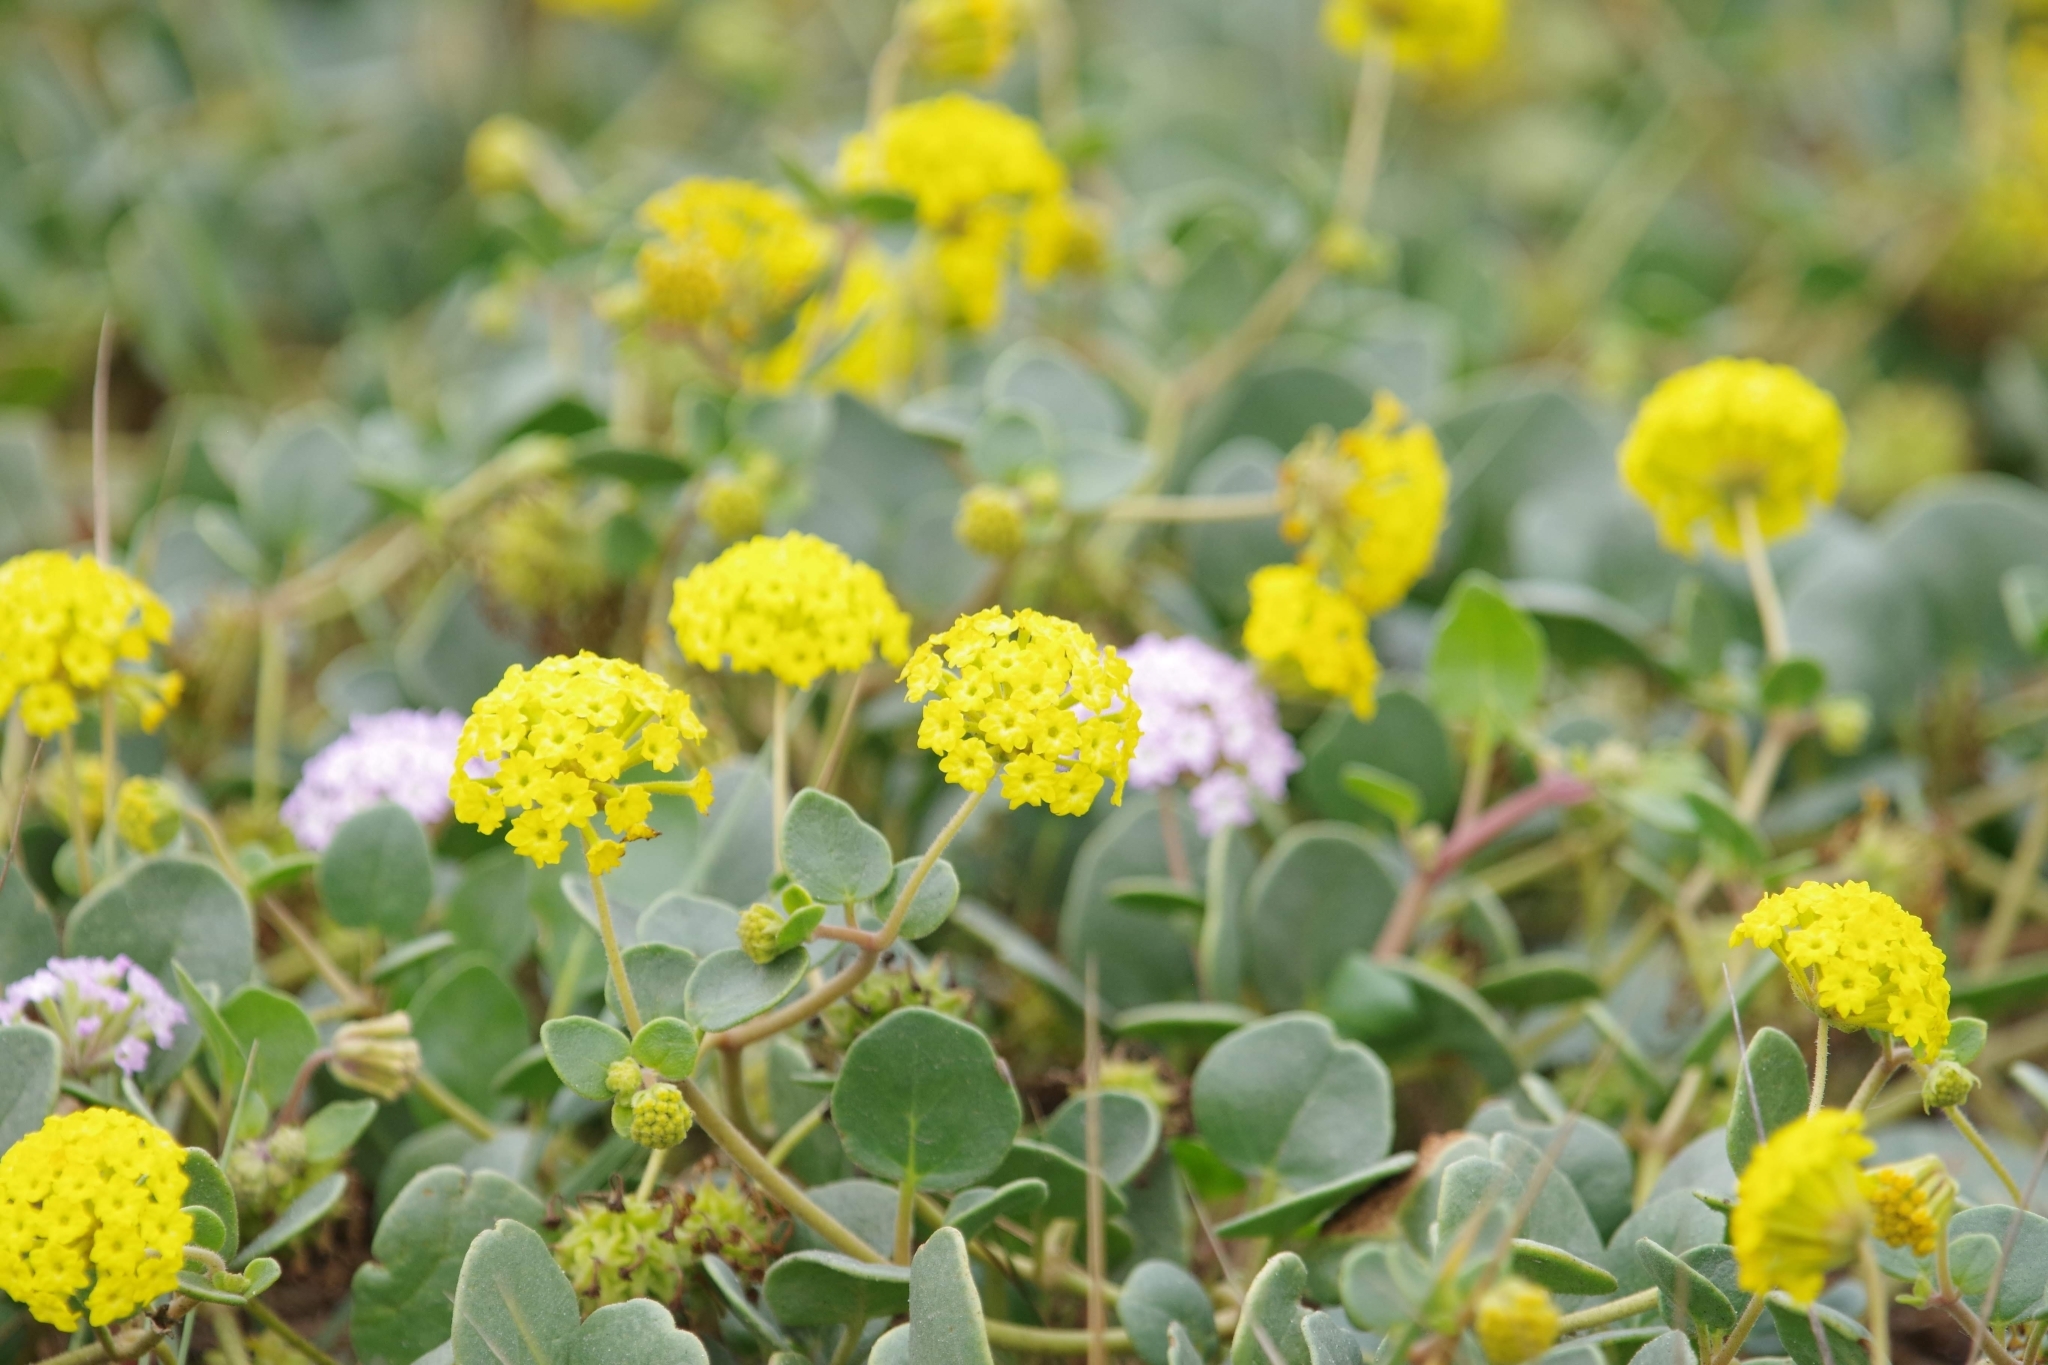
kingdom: Plantae
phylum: Tracheophyta
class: Magnoliopsida
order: Caryophyllales
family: Nyctaginaceae
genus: Abronia
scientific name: Abronia latifolia
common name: Yellow sand-verbena
